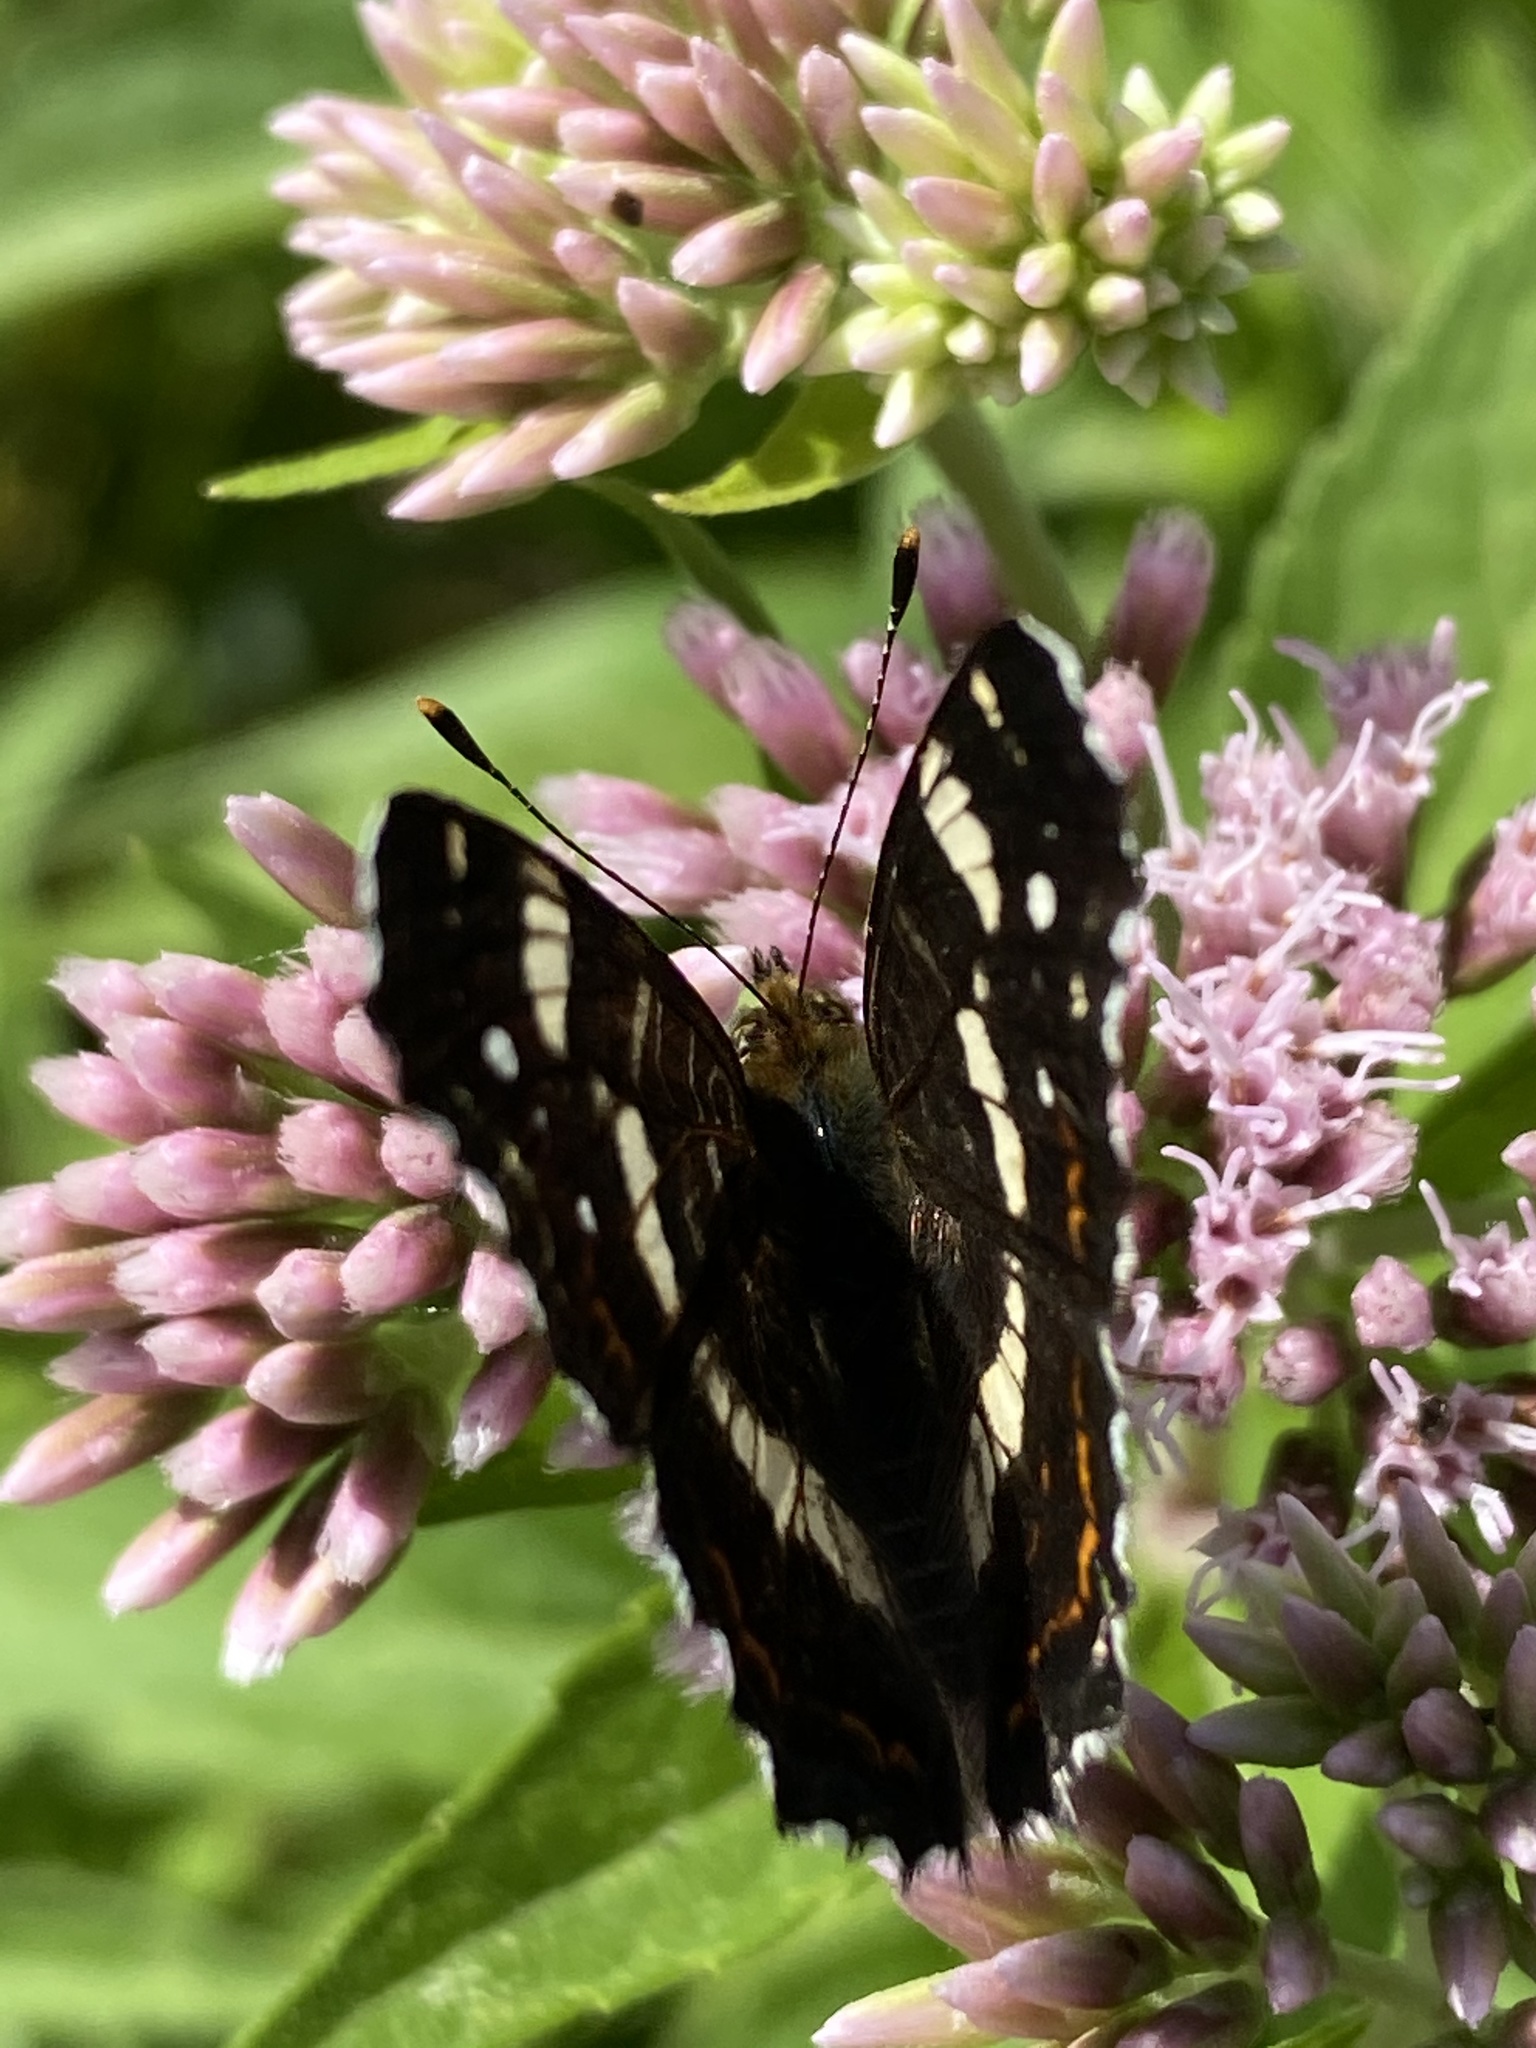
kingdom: Animalia
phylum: Arthropoda
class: Insecta
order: Lepidoptera
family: Nymphalidae
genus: Araschnia
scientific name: Araschnia levana
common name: Map butterfly
